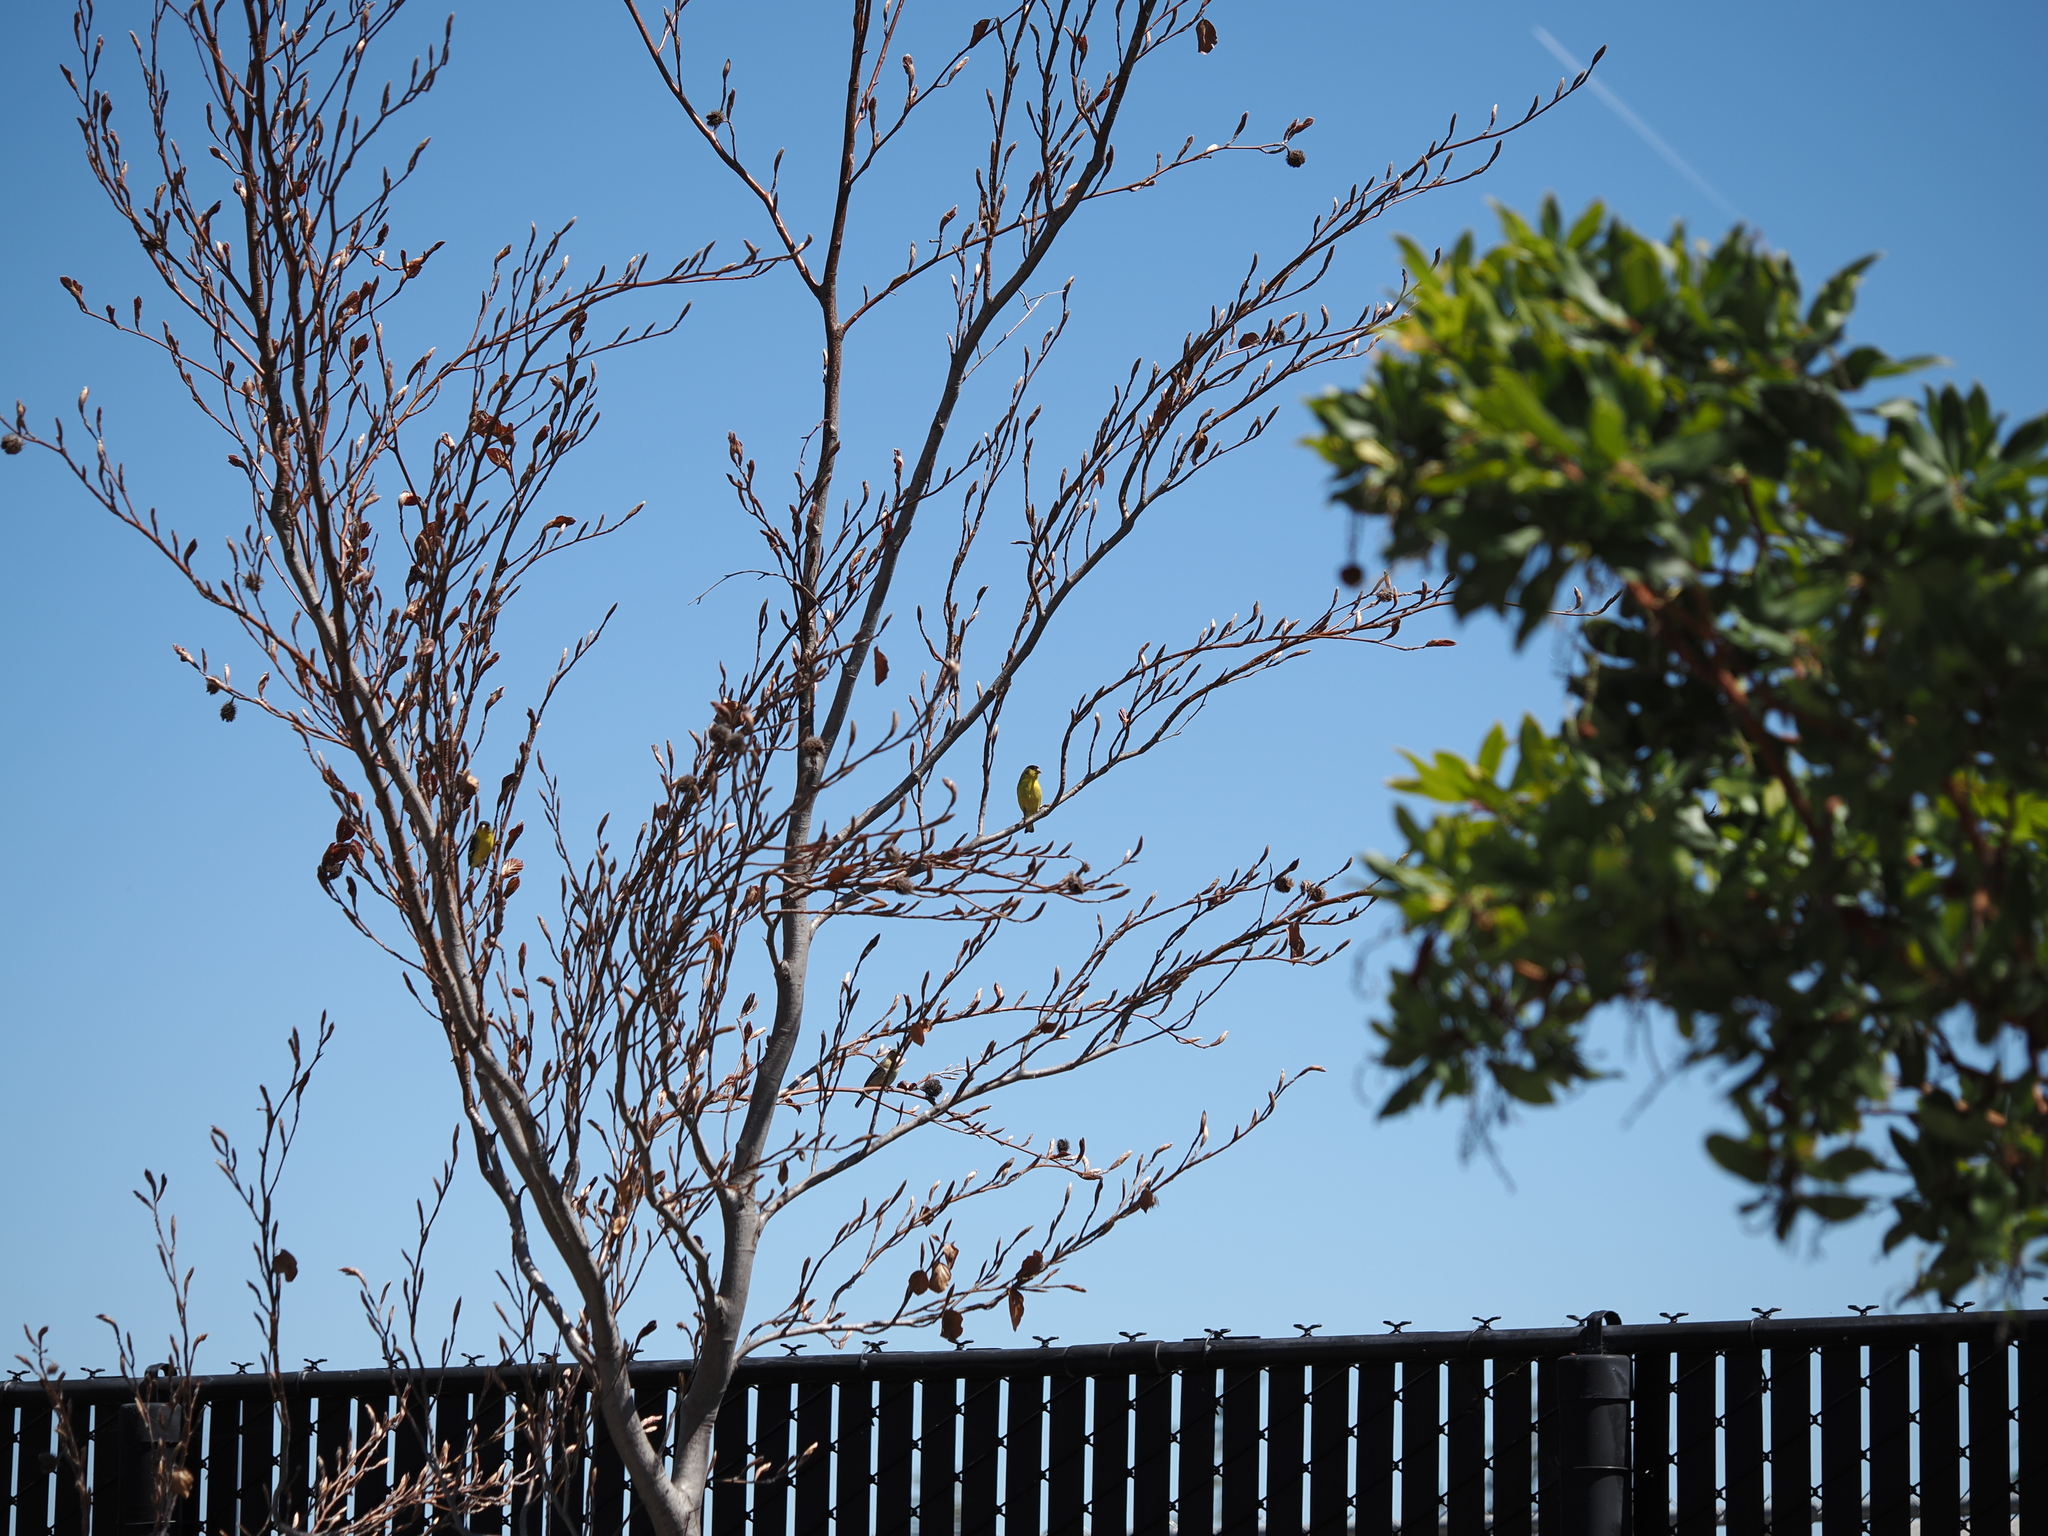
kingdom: Animalia
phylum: Chordata
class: Aves
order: Passeriformes
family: Fringillidae
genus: Spinus
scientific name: Spinus psaltria
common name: Lesser goldfinch
